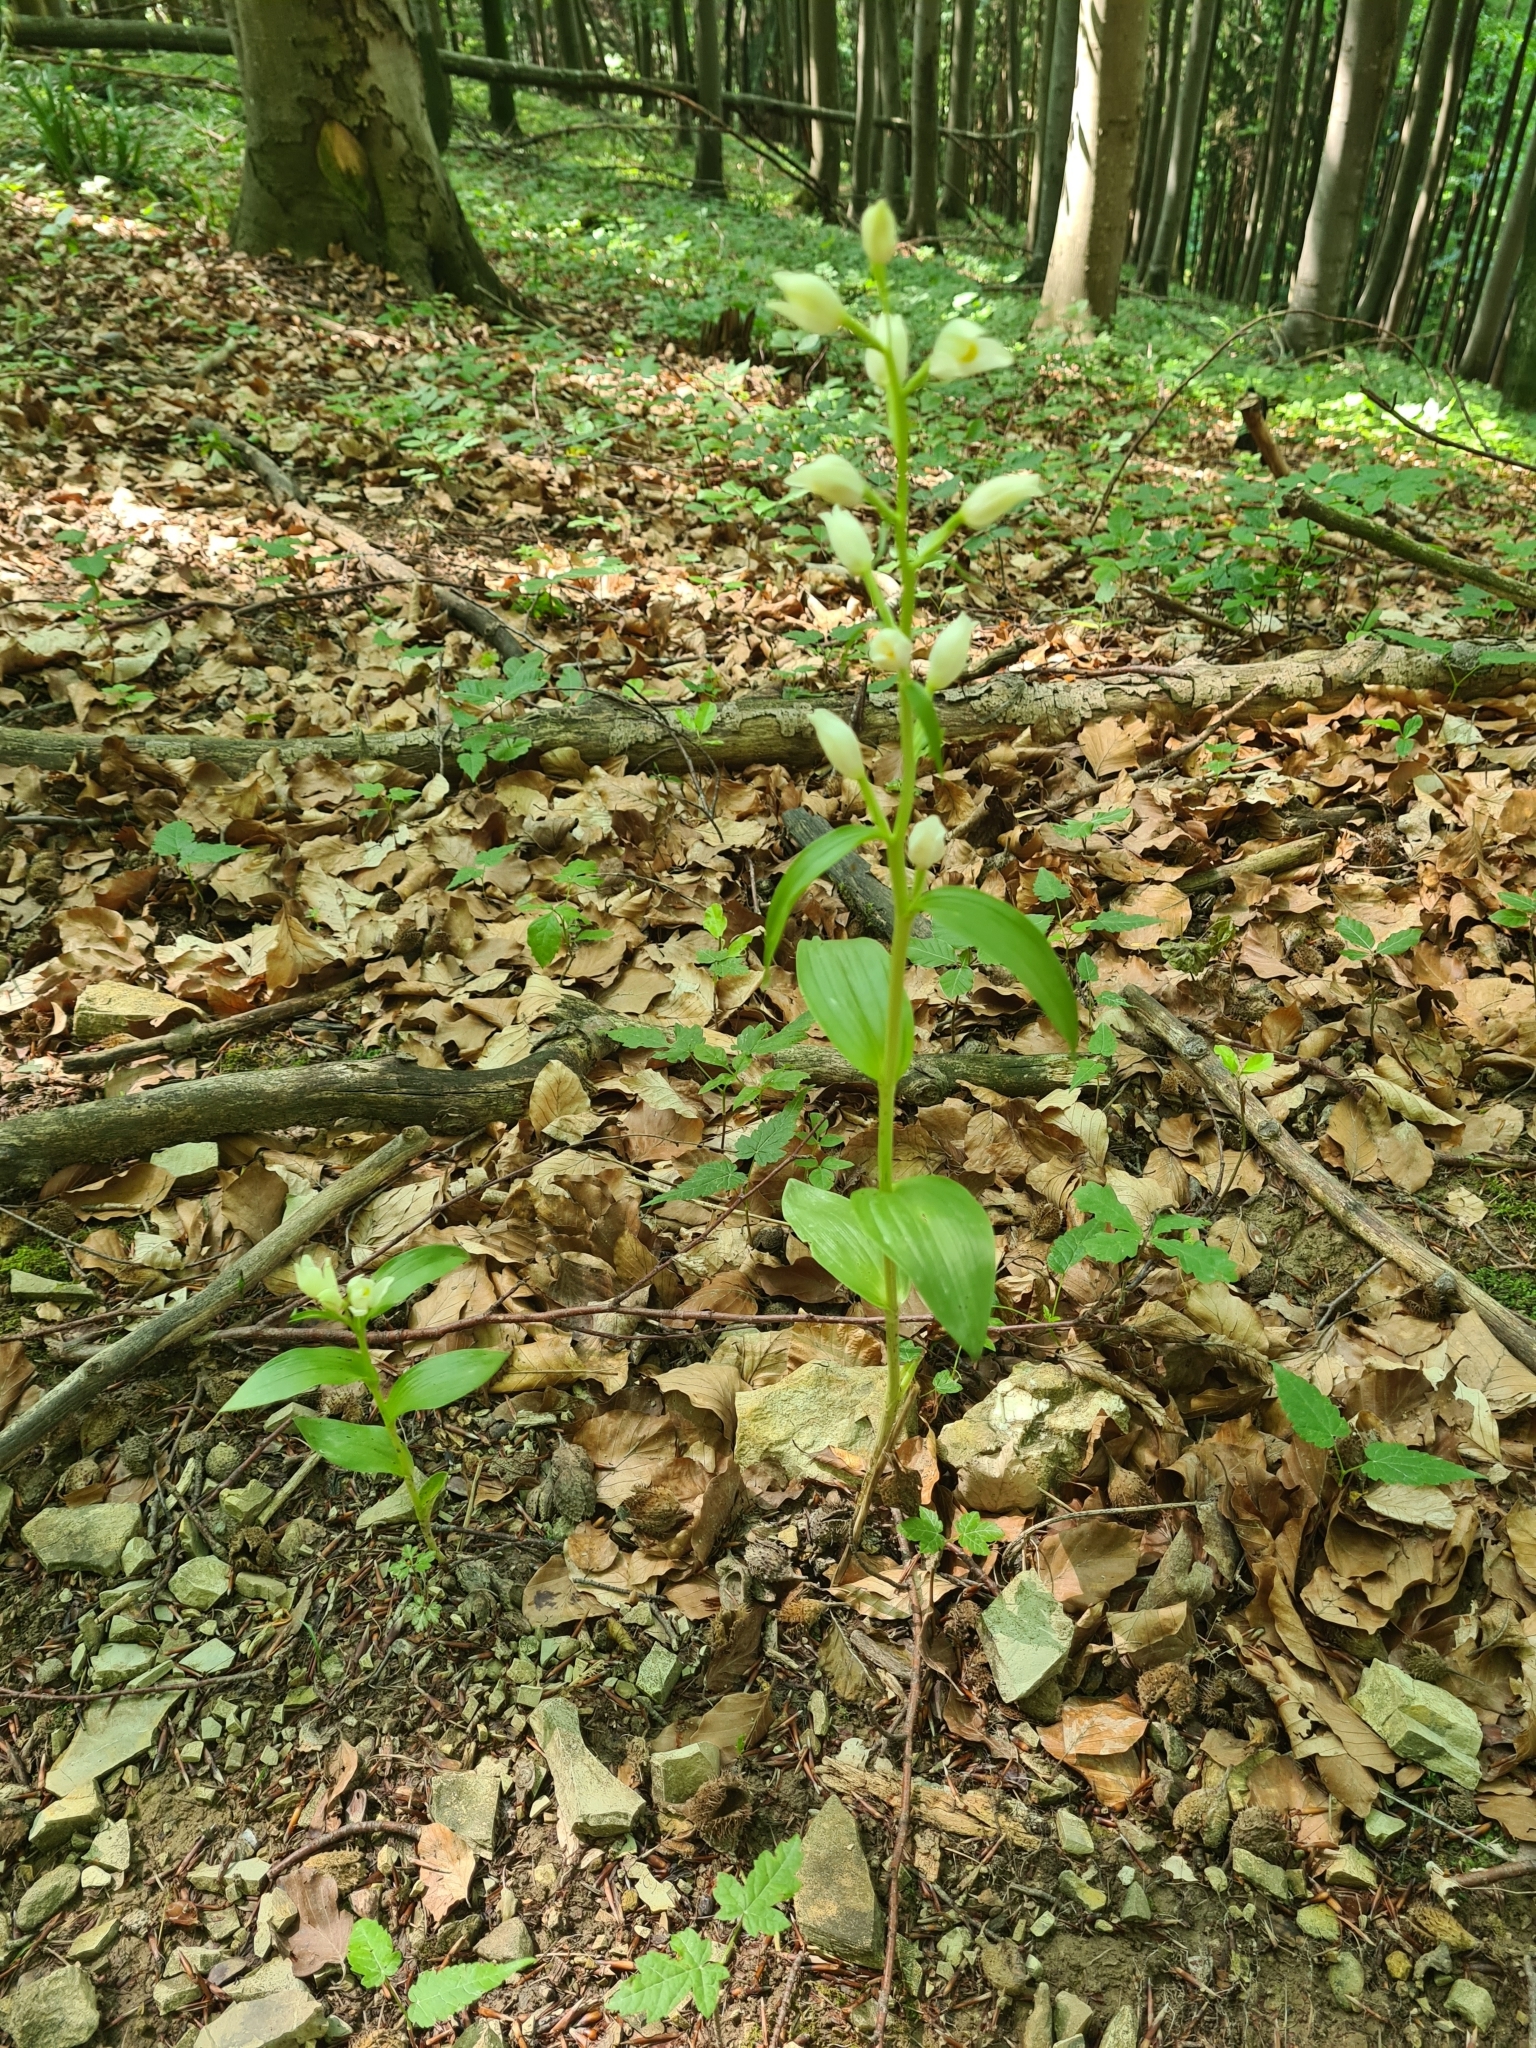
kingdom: Plantae
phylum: Tracheophyta
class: Liliopsida
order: Asparagales
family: Orchidaceae
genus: Cephalanthera
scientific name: Cephalanthera damasonium
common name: White helleborine
